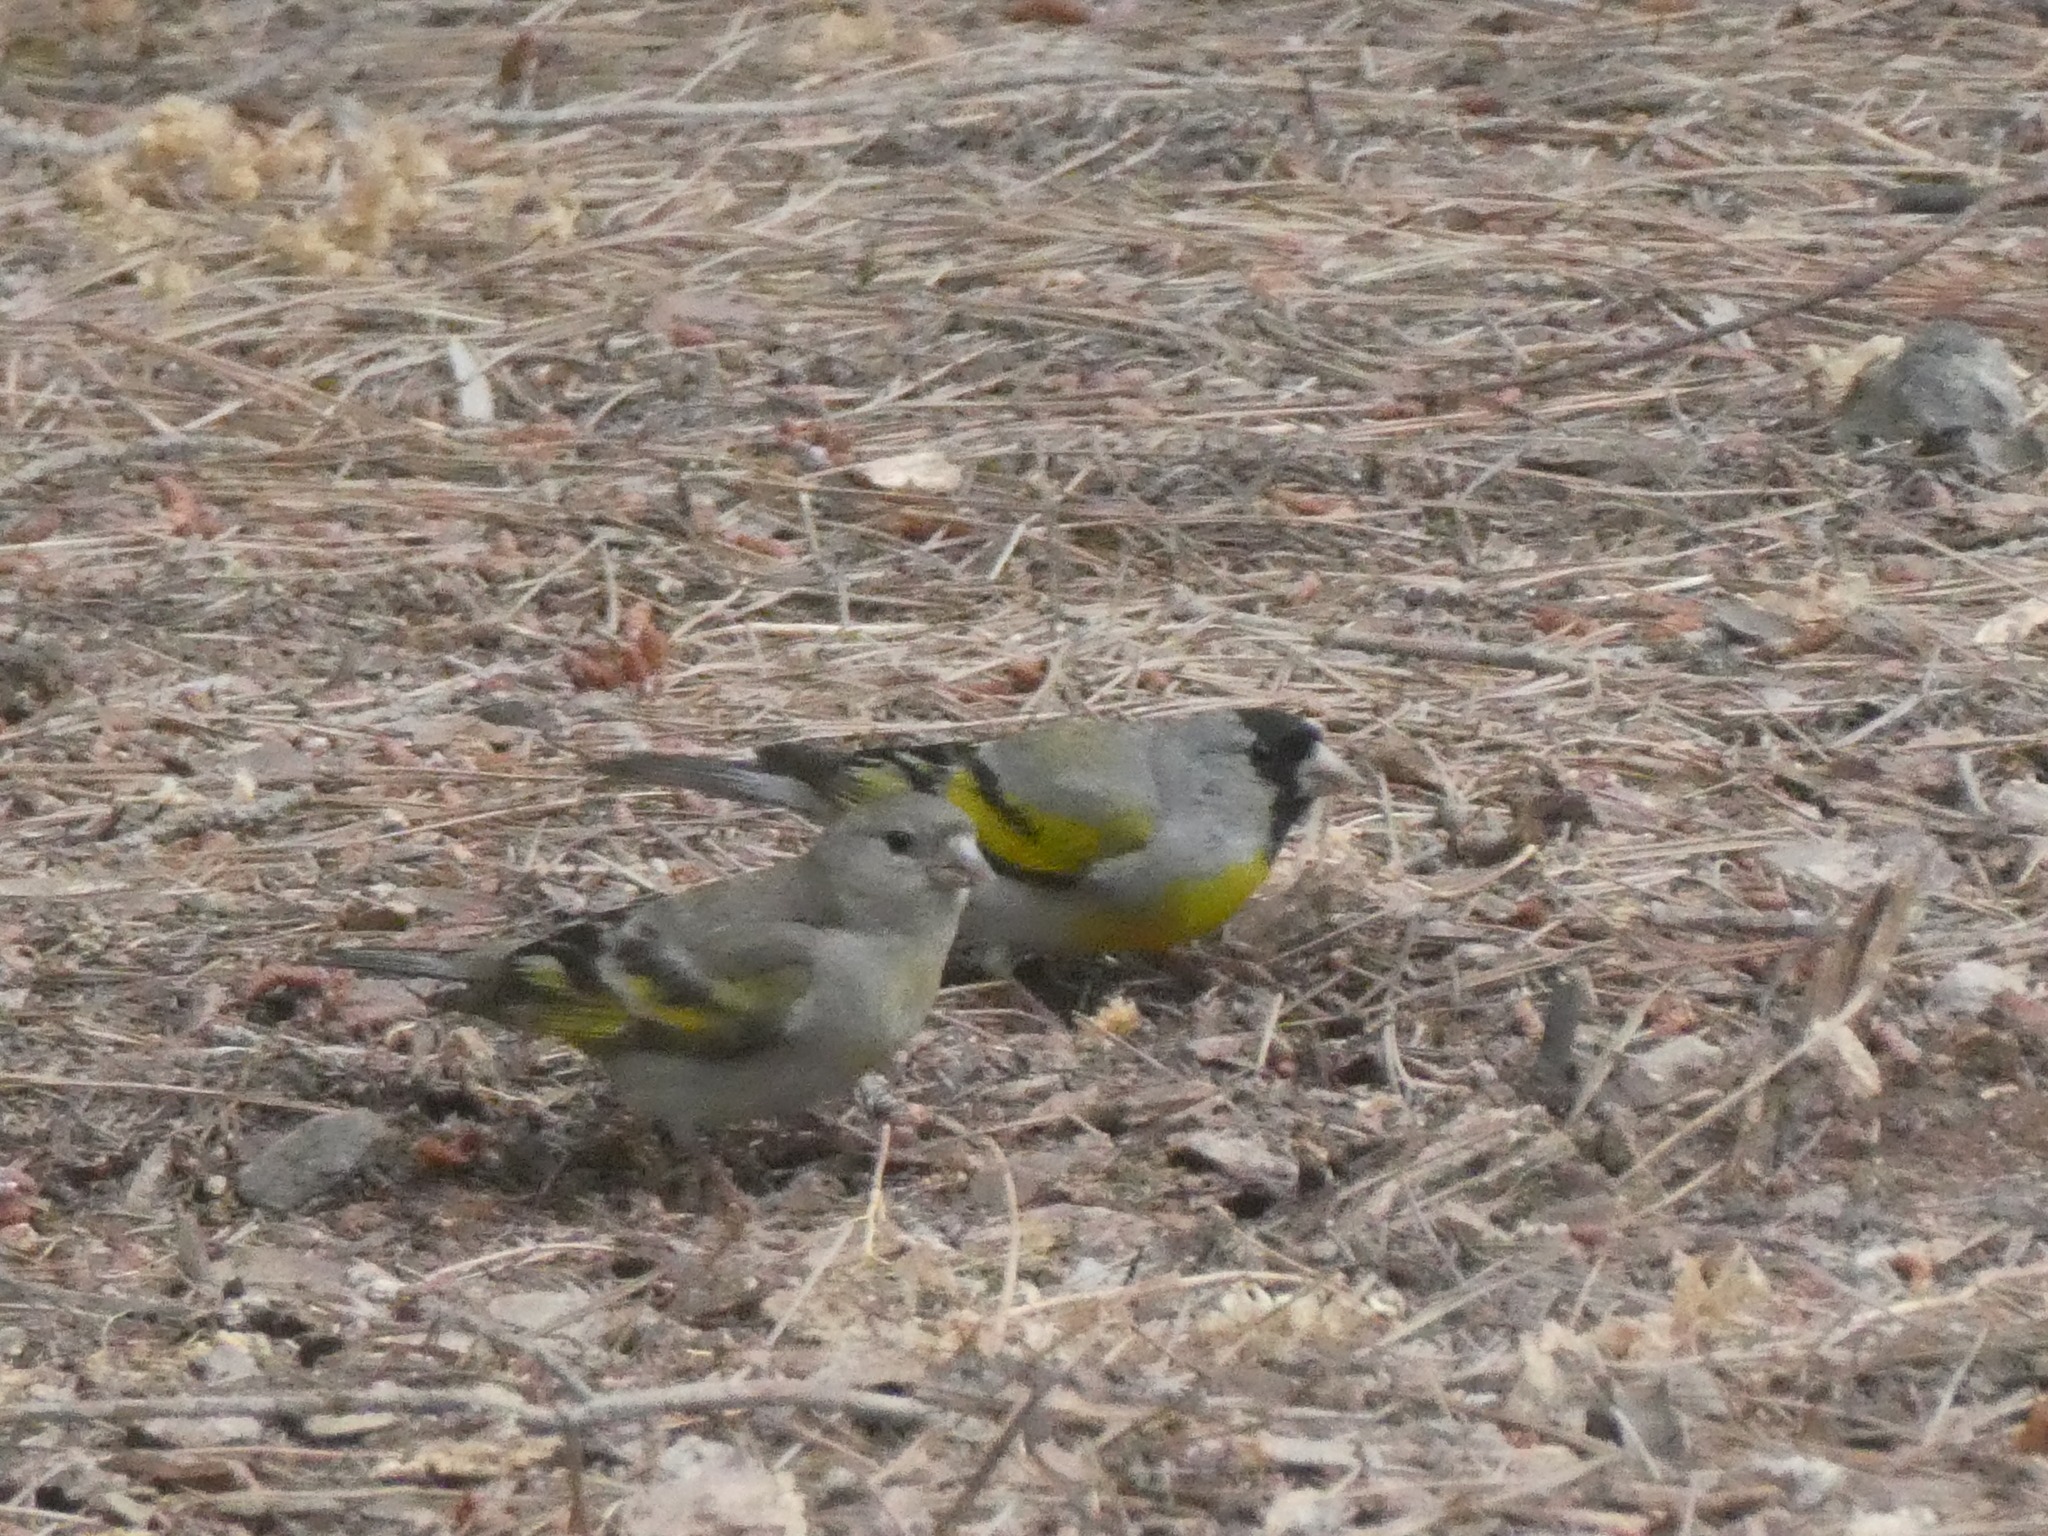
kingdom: Animalia
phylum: Chordata
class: Aves
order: Passeriformes
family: Fringillidae
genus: Spinus
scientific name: Spinus lawrencei
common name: Lawrence's goldfinch
